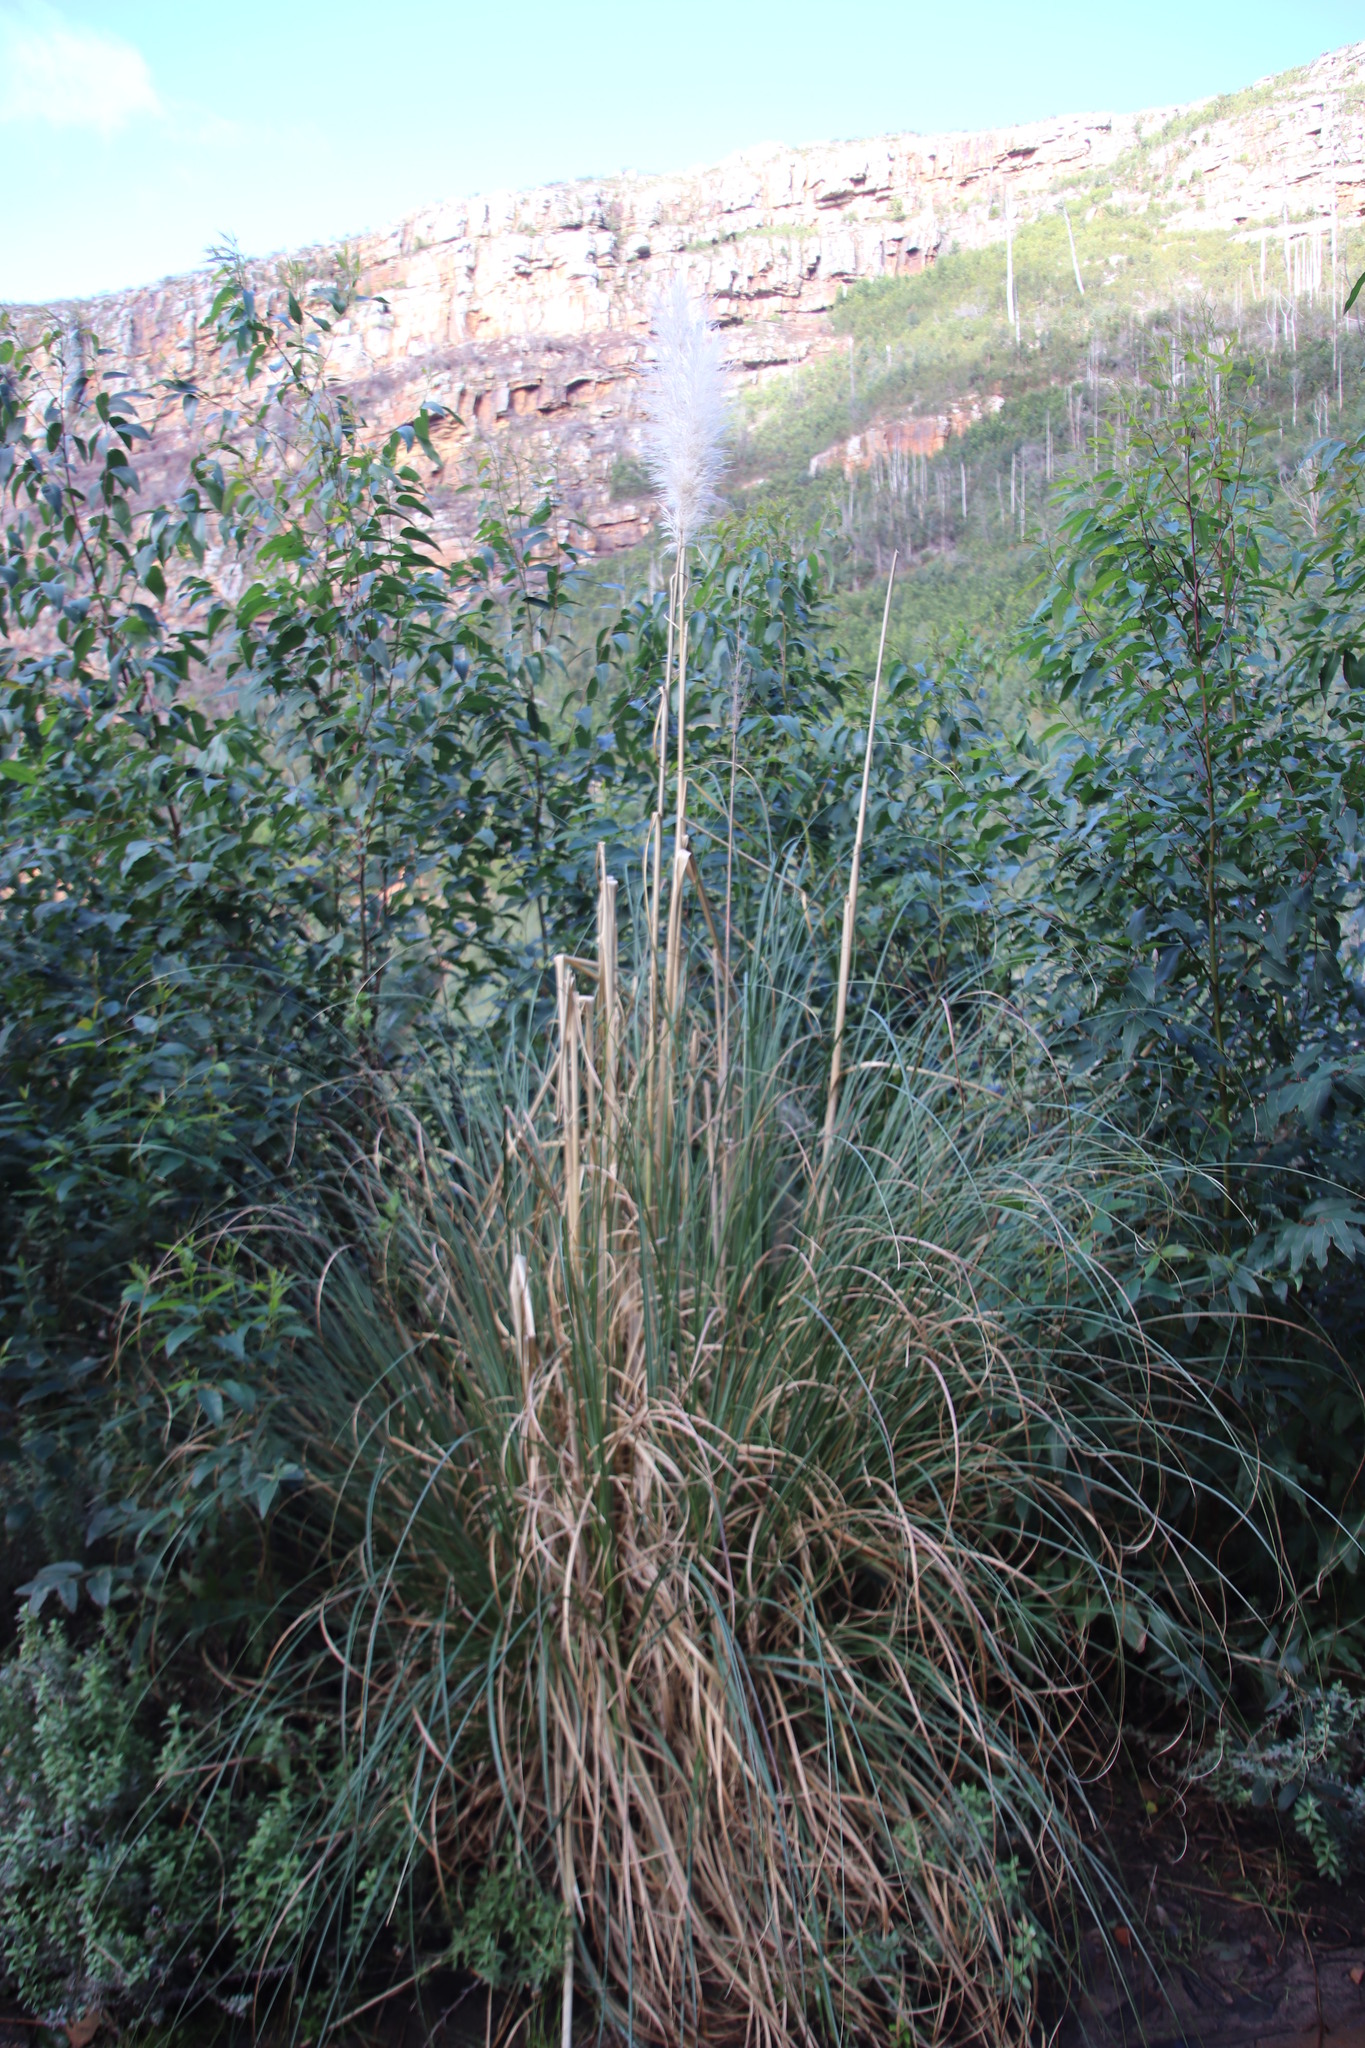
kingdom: Plantae
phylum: Tracheophyta
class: Liliopsida
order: Poales
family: Poaceae
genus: Cortaderia
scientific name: Cortaderia selloana
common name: Uruguayan pampas grass
